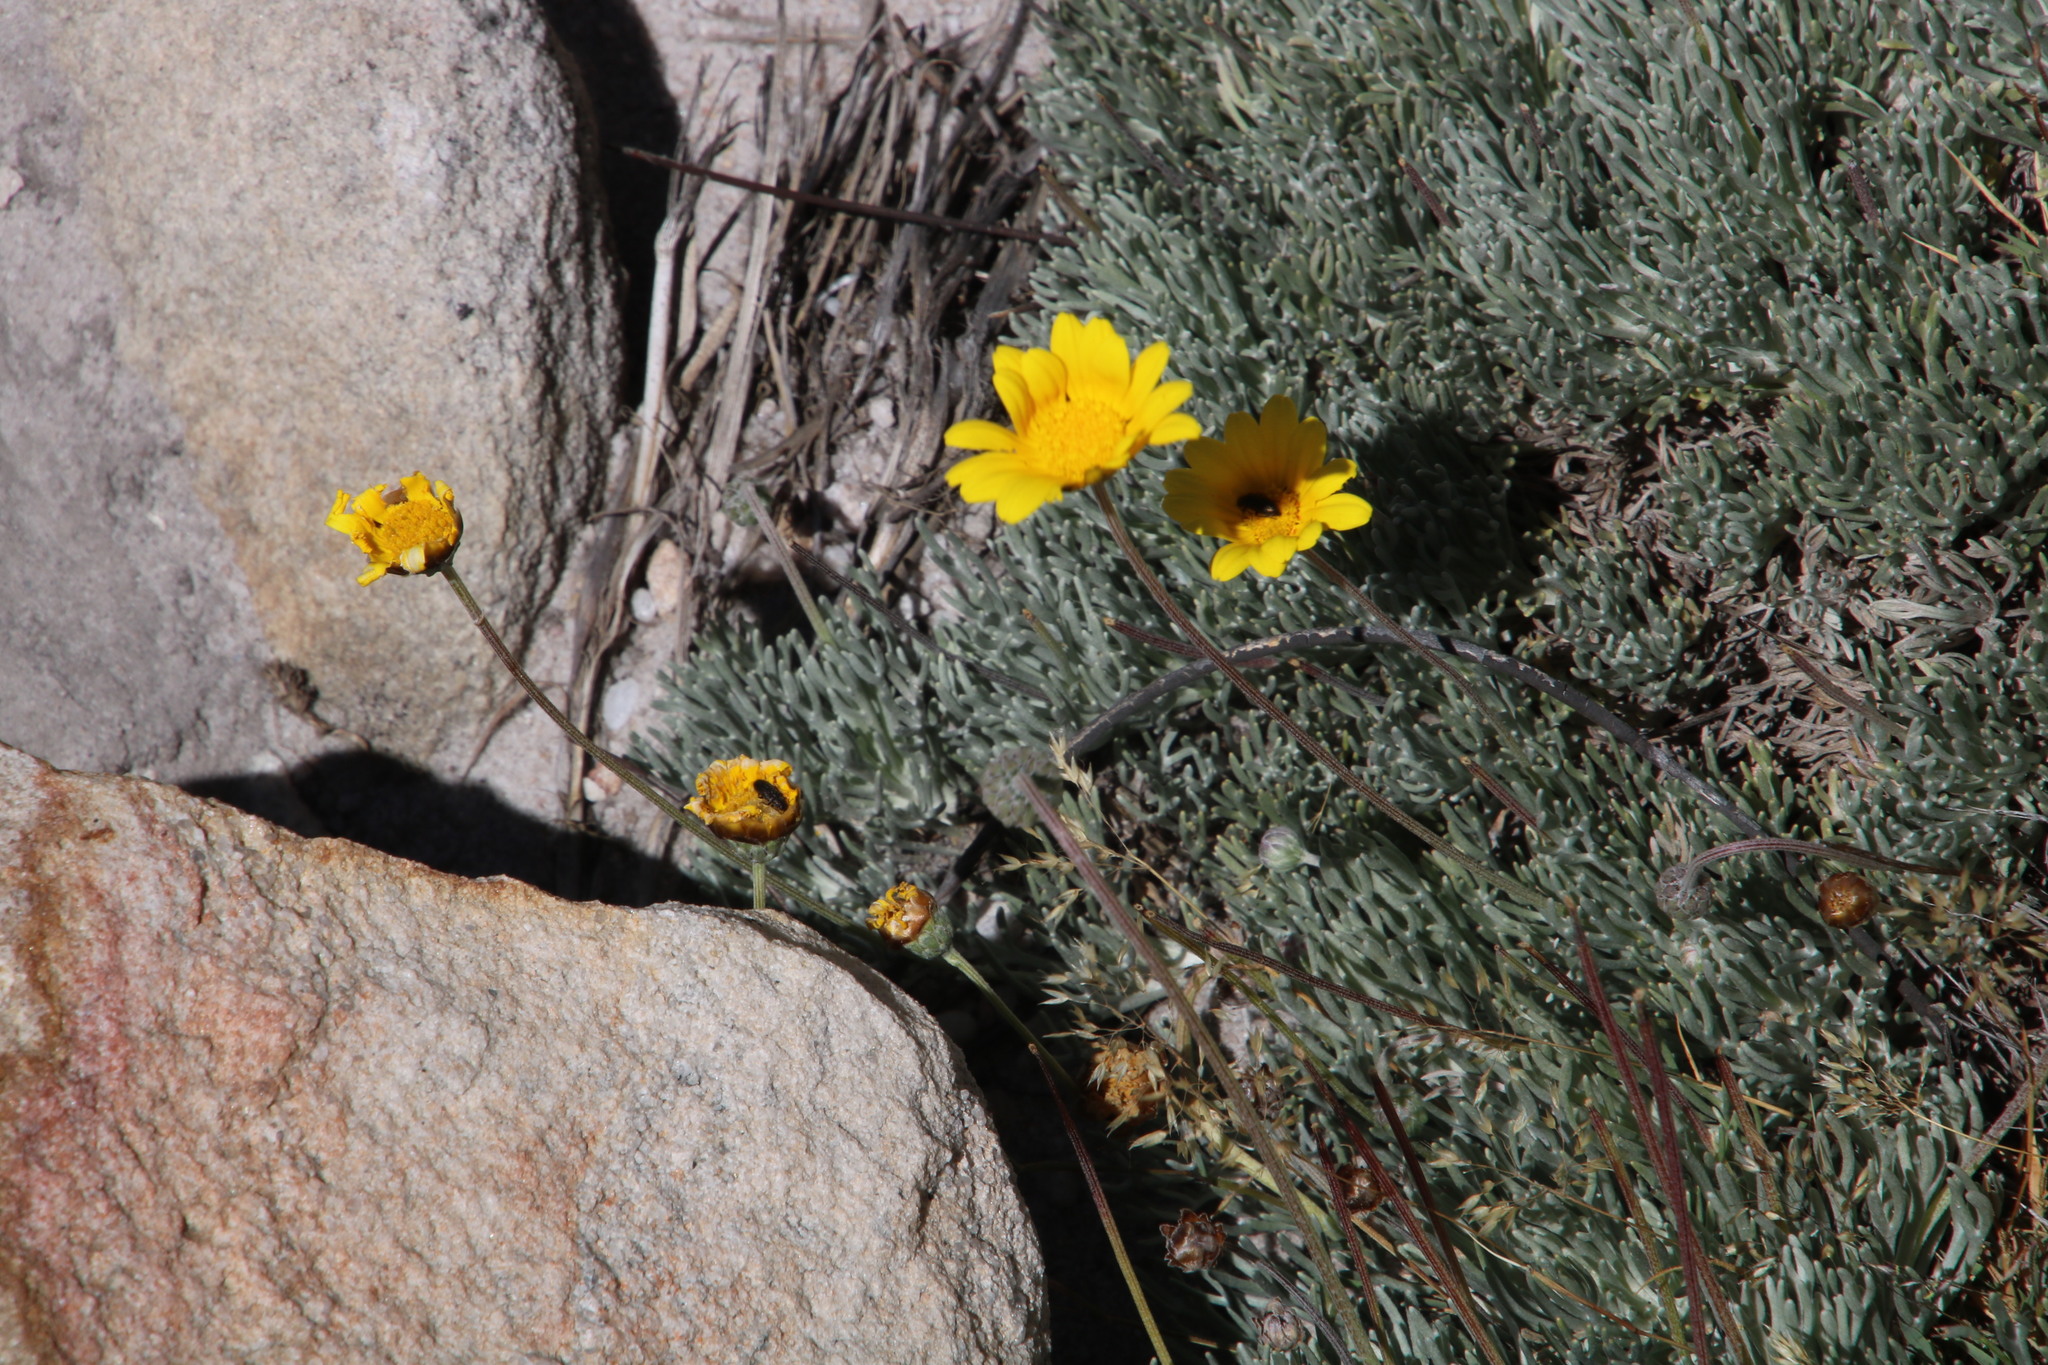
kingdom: Plantae
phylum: Tracheophyta
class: Magnoliopsida
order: Asterales
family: Asteraceae
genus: Ursinia
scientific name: Ursinia sericea
